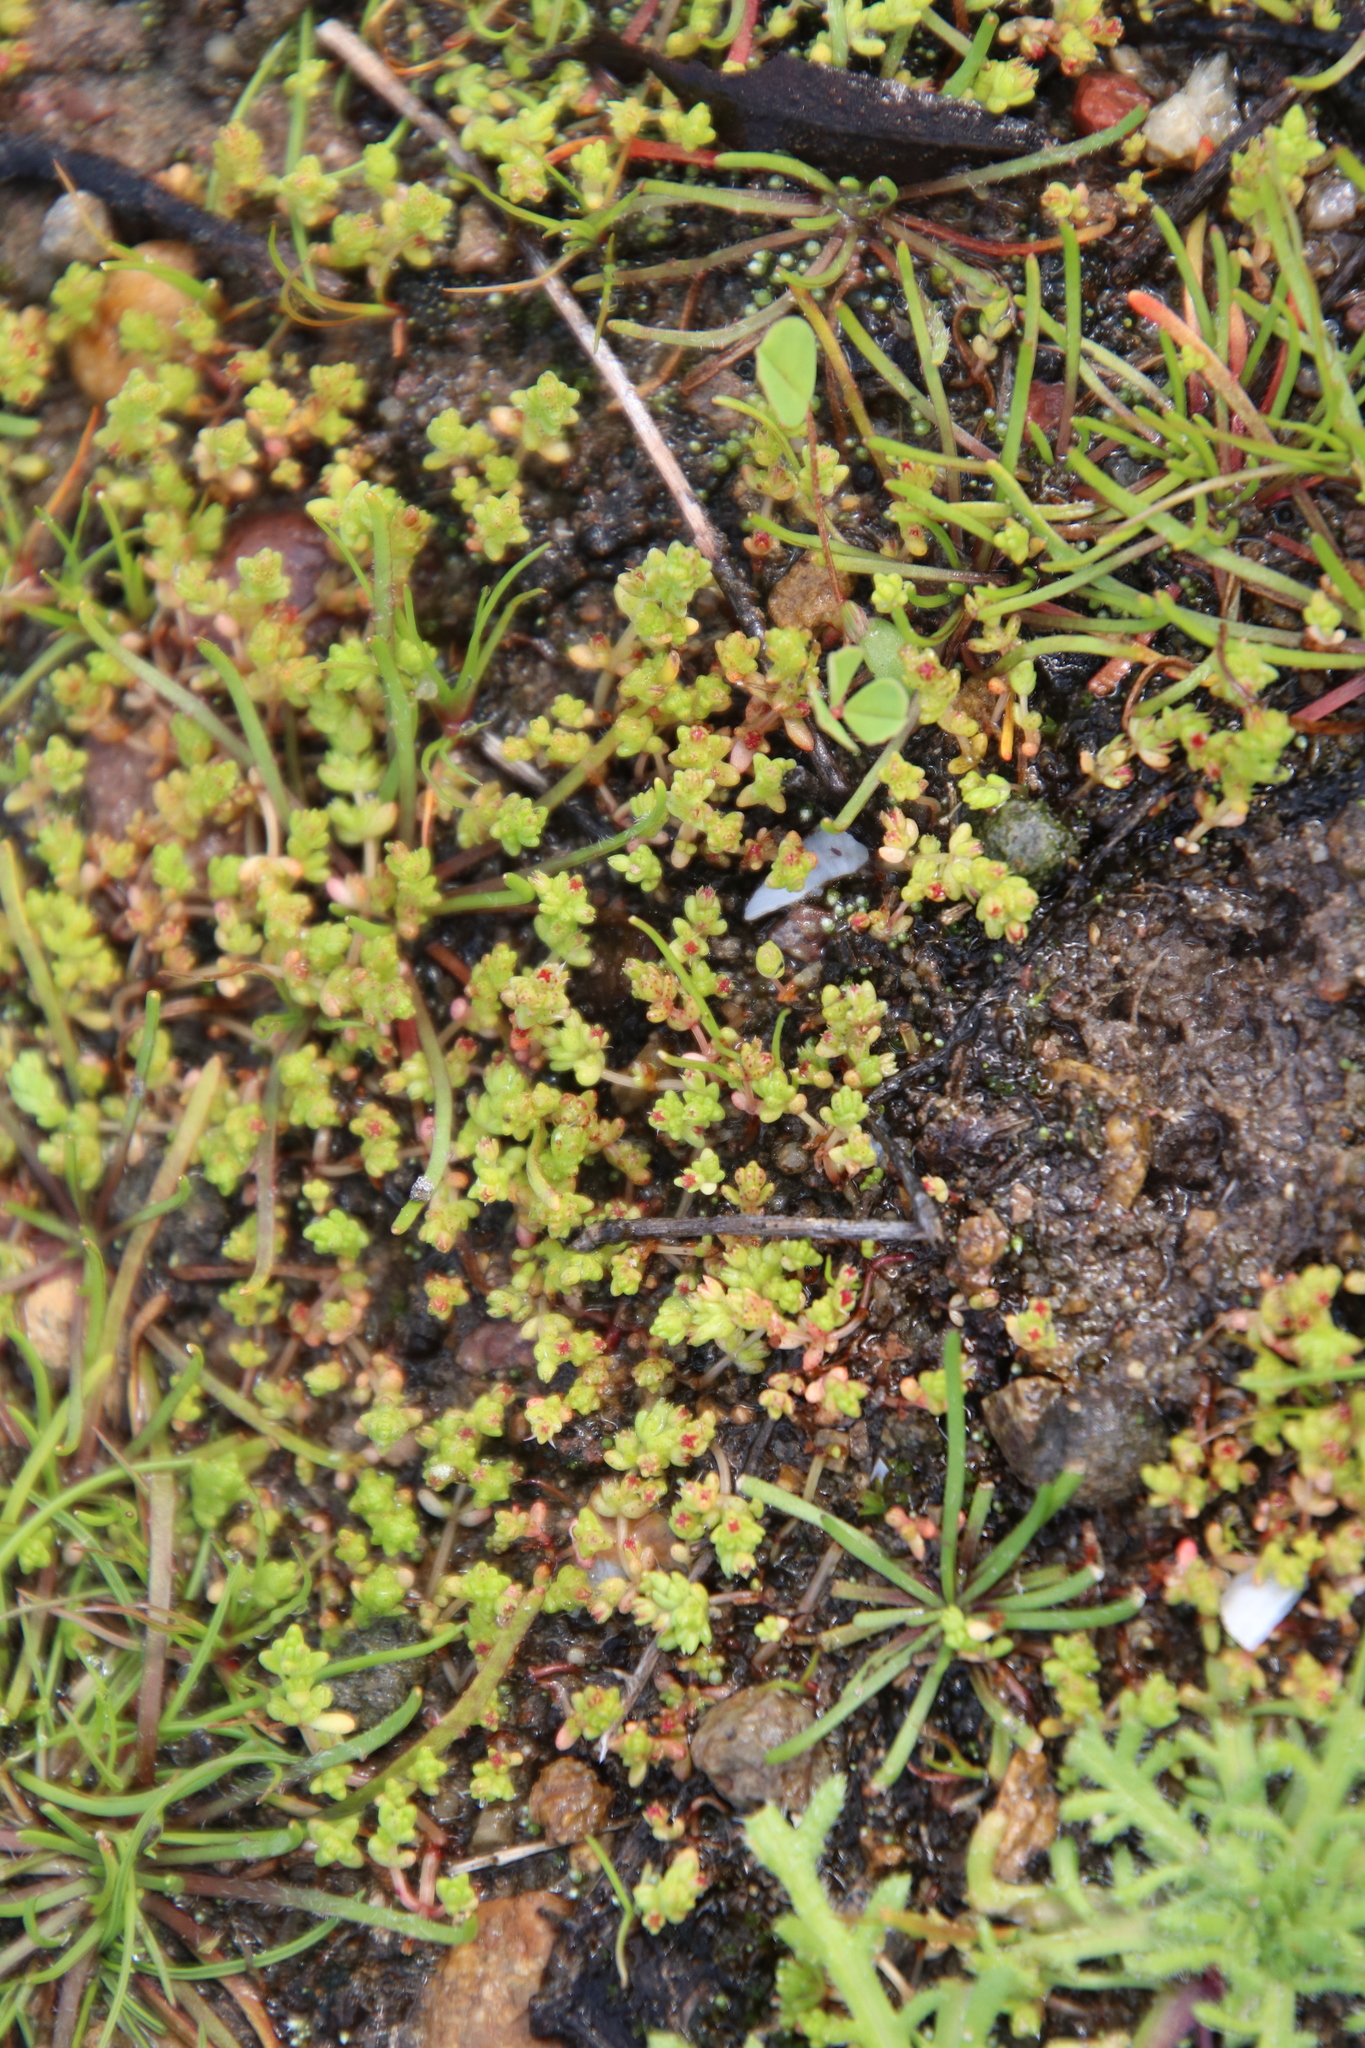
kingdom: Plantae
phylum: Tracheophyta
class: Magnoliopsida
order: Saxifragales
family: Crassulaceae
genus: Crassula
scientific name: Crassula connata
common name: Erect pygmyweed
